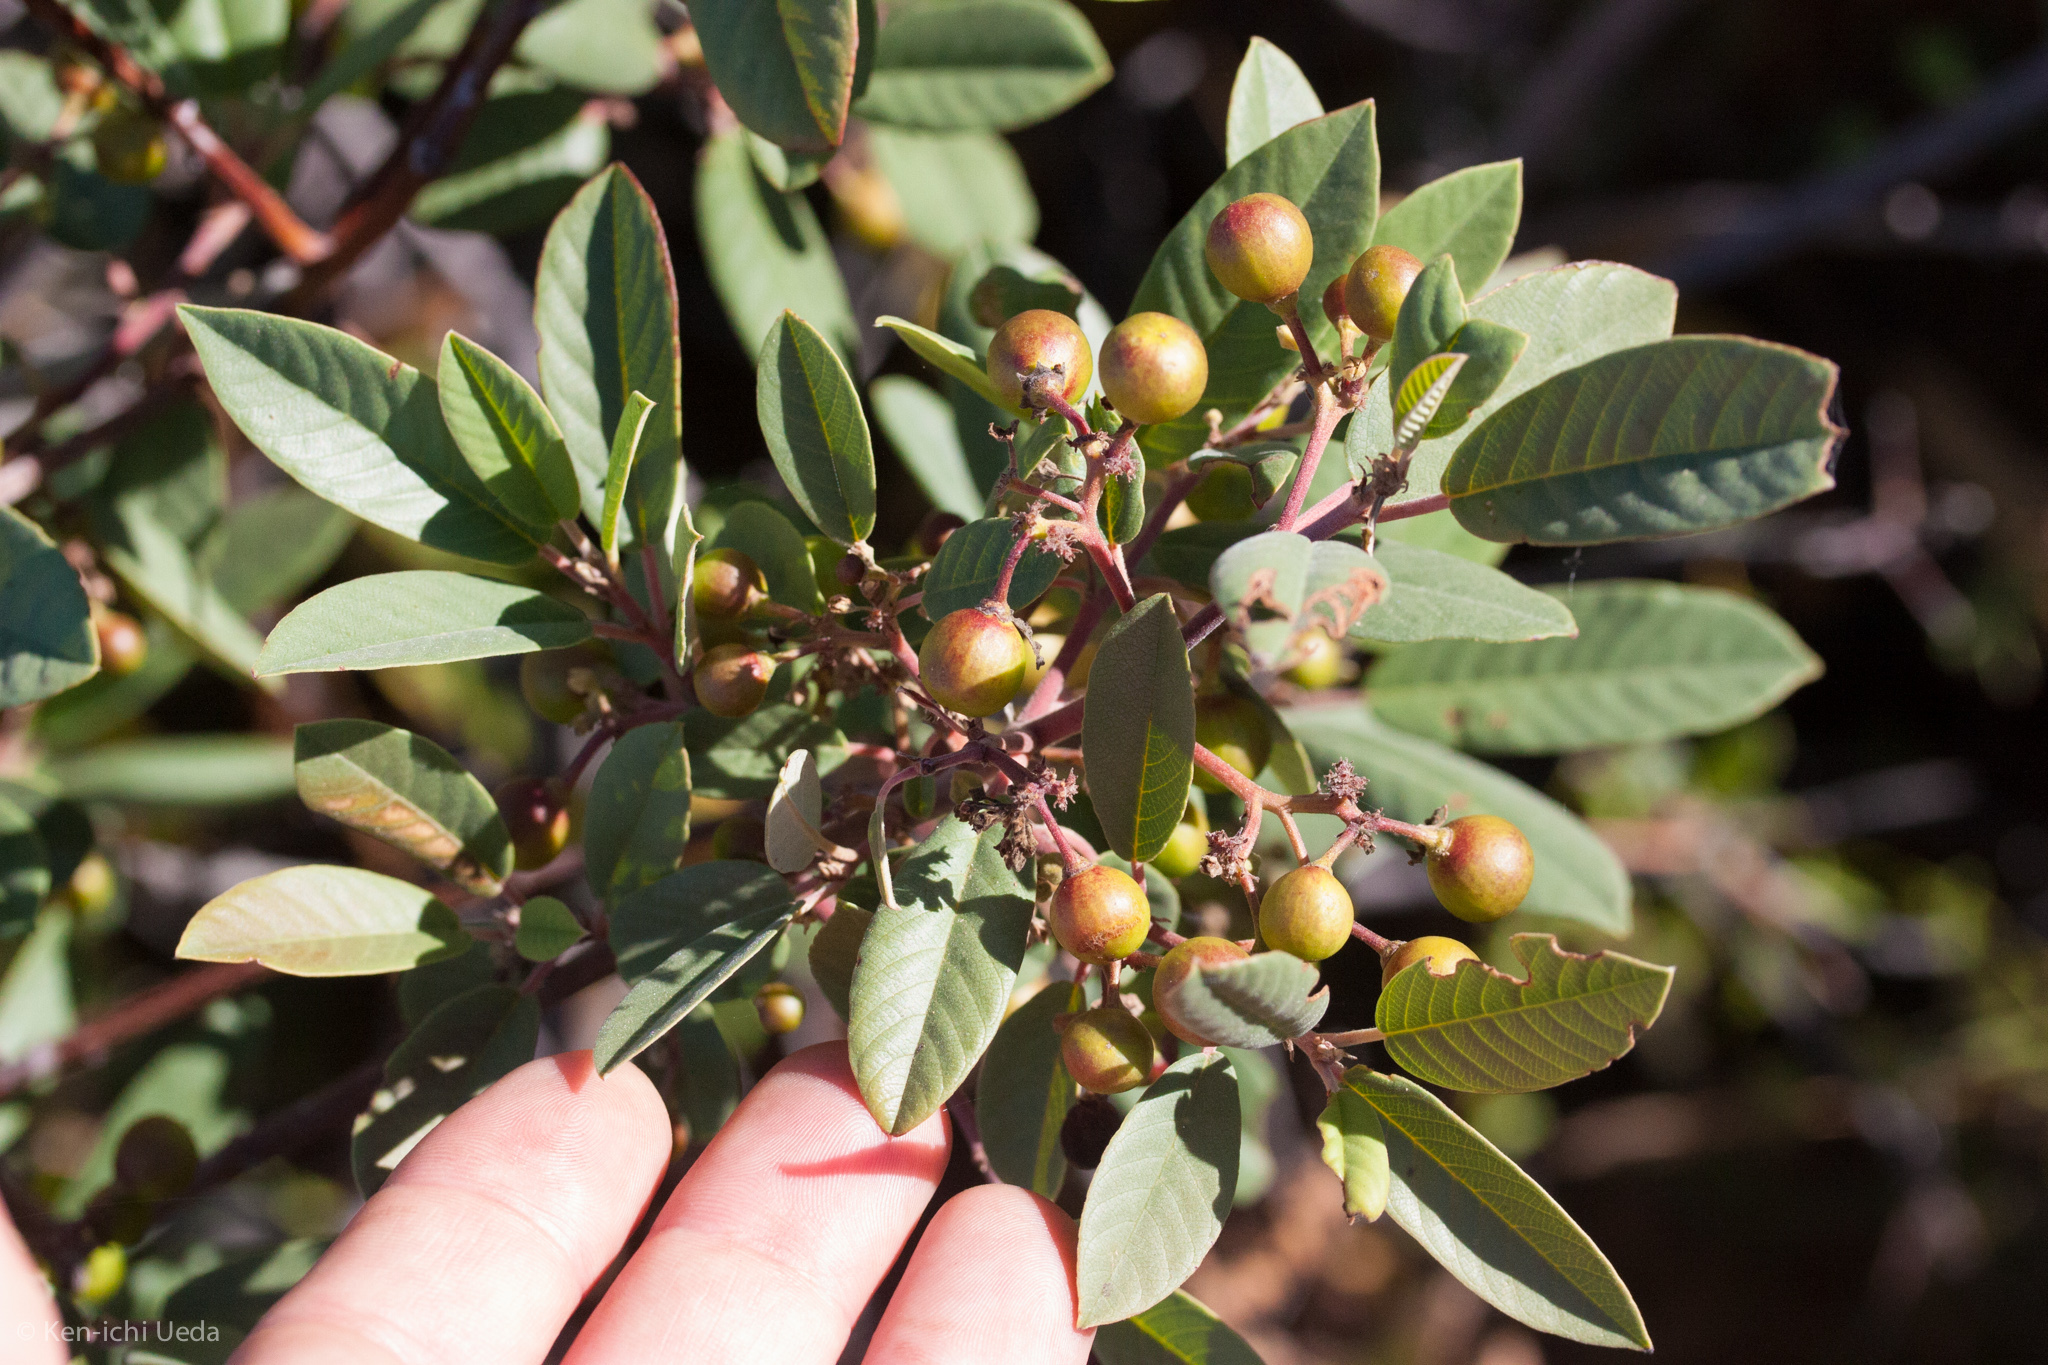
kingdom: Plantae
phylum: Tracheophyta
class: Magnoliopsida
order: Rosales
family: Rhamnaceae
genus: Frangula
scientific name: Frangula californica
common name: California buckthorn
